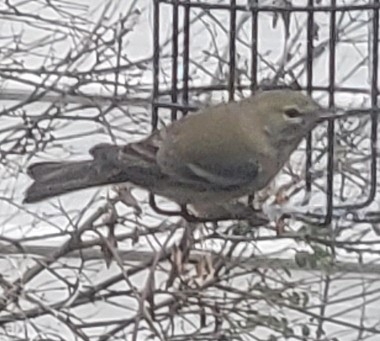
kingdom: Animalia
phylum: Chordata
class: Aves
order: Passeriformes
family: Parulidae
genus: Setophaga
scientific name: Setophaga pinus
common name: Pine warbler
